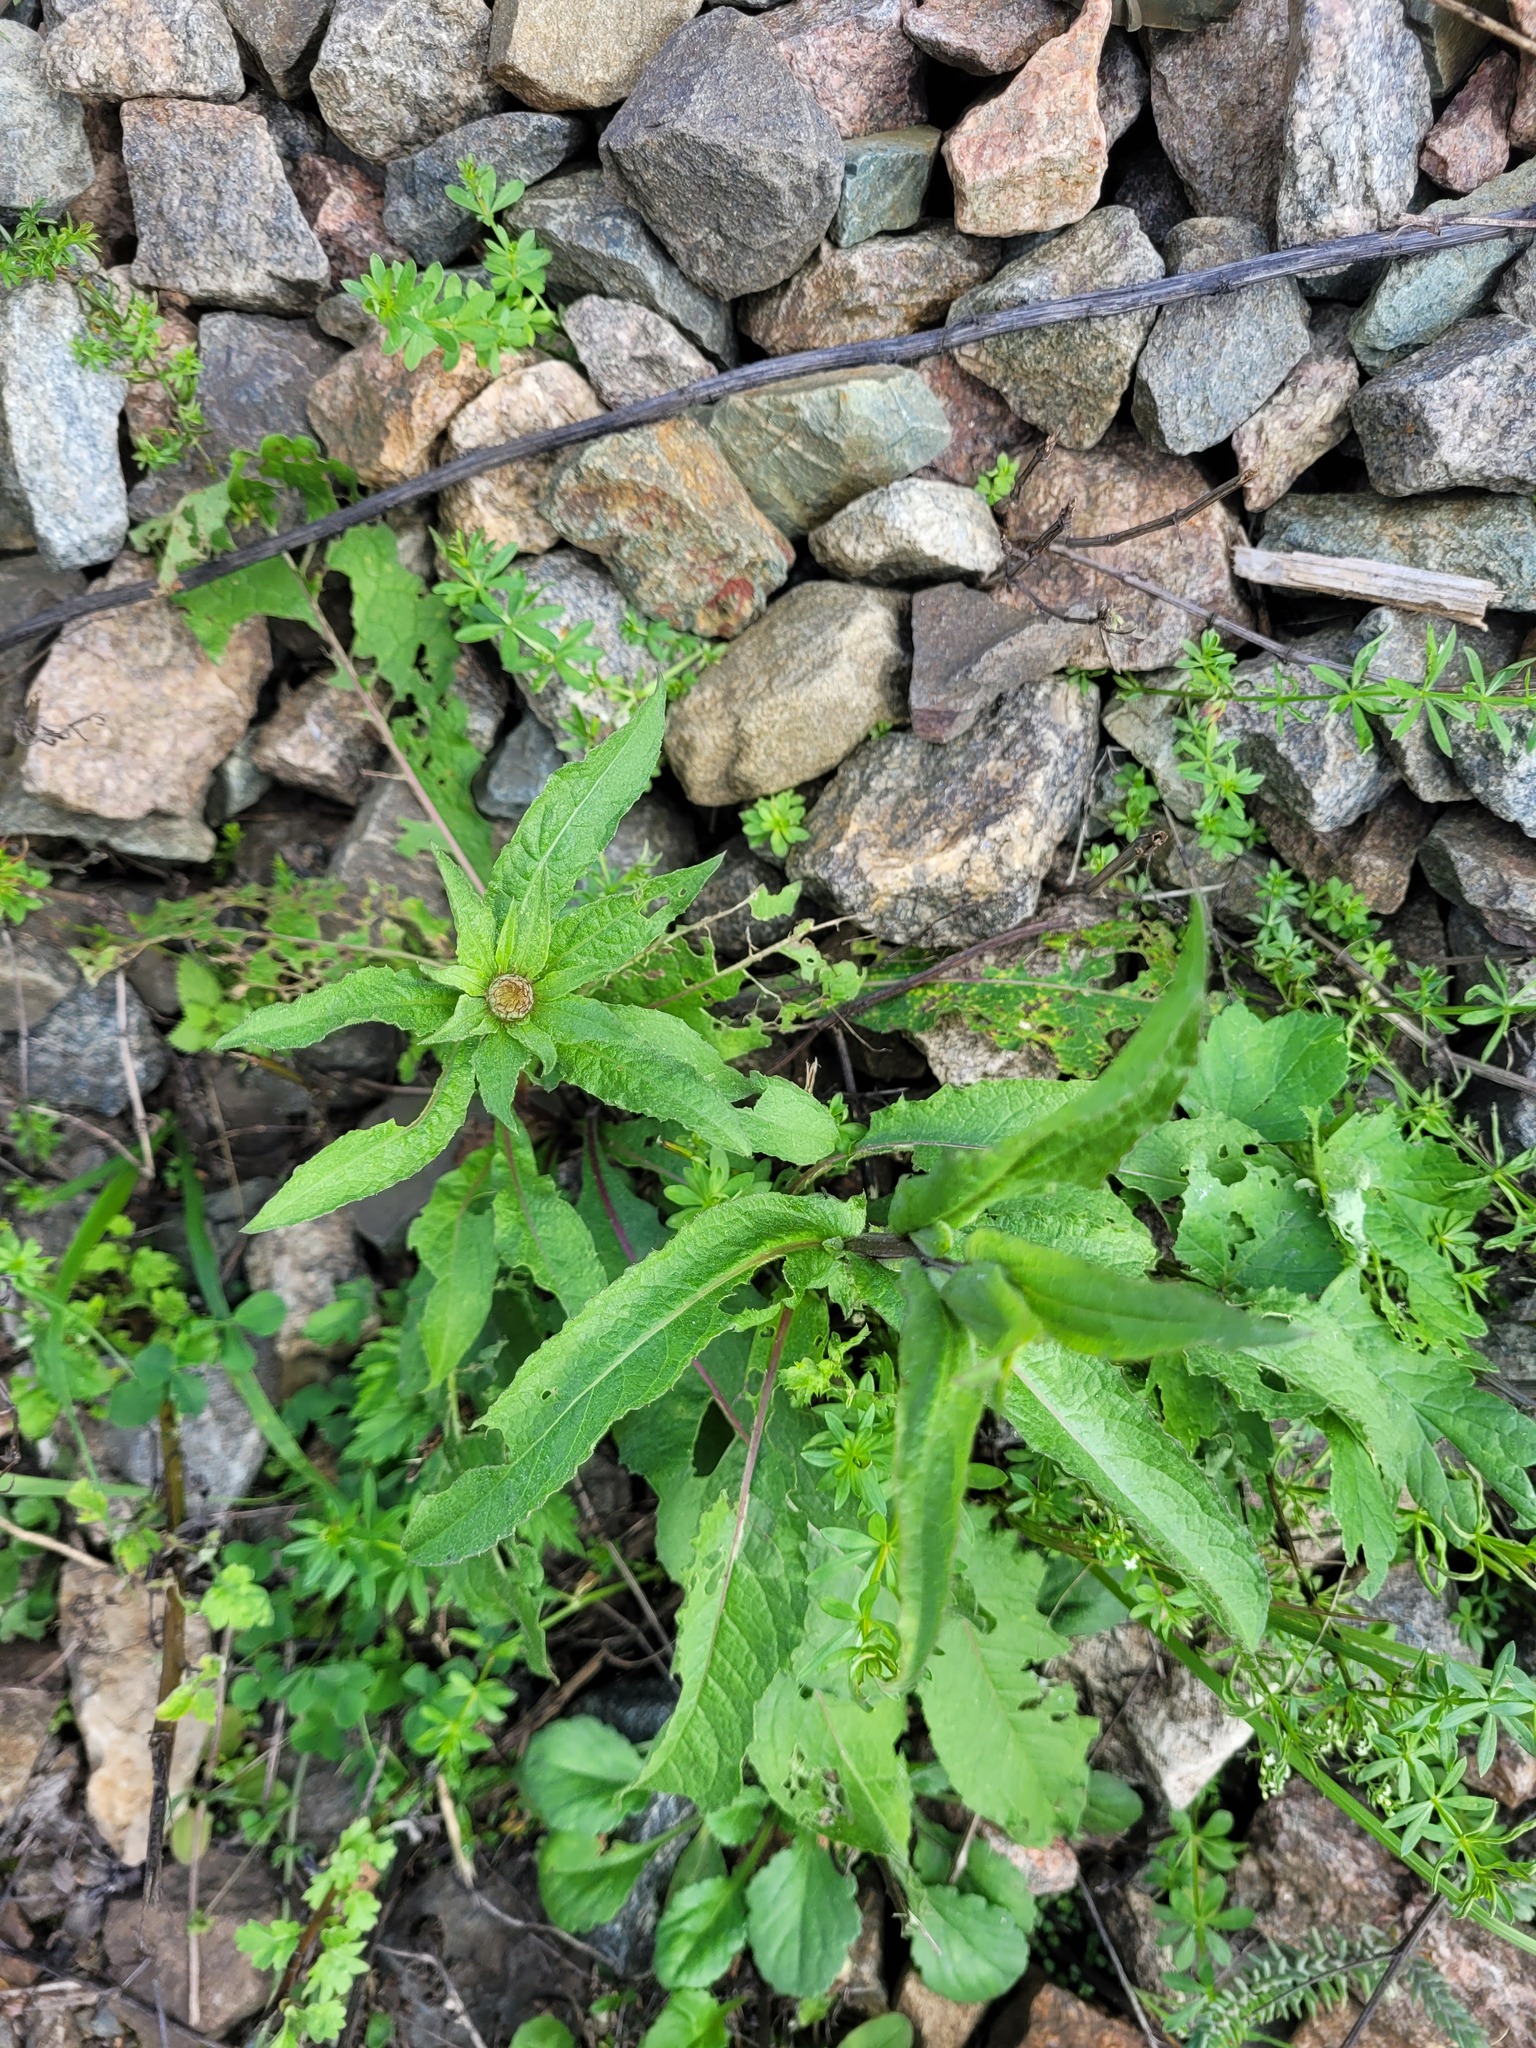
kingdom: Plantae
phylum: Tracheophyta
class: Magnoliopsida
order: Asterales
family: Asteraceae
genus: Centaurea
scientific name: Centaurea pseudophrygia
